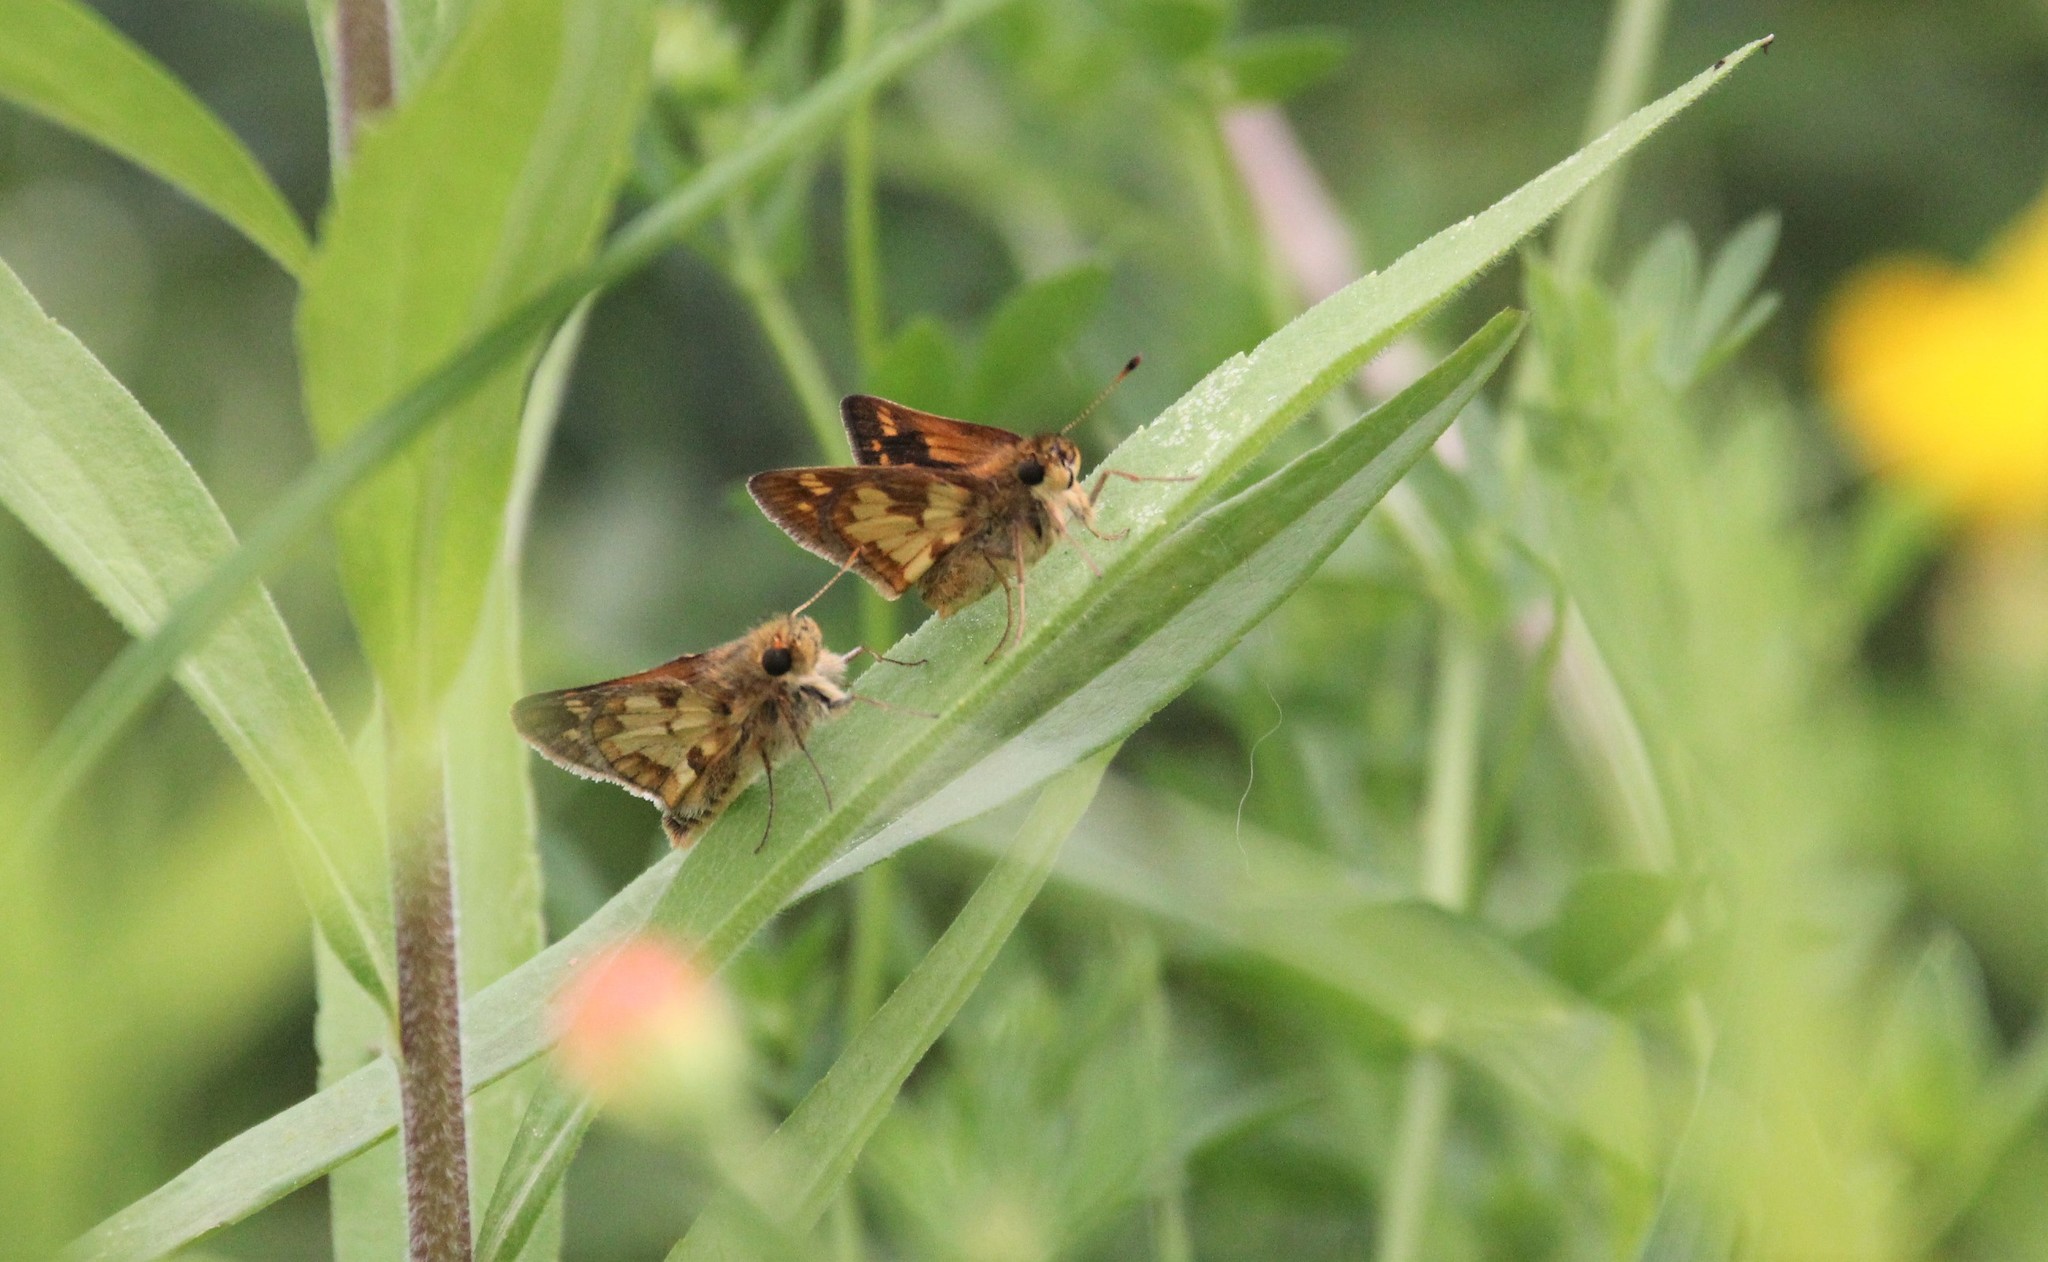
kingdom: Animalia
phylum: Arthropoda
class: Insecta
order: Lepidoptera
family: Hesperiidae
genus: Polites
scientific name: Polites coras
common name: Peck's skipper
